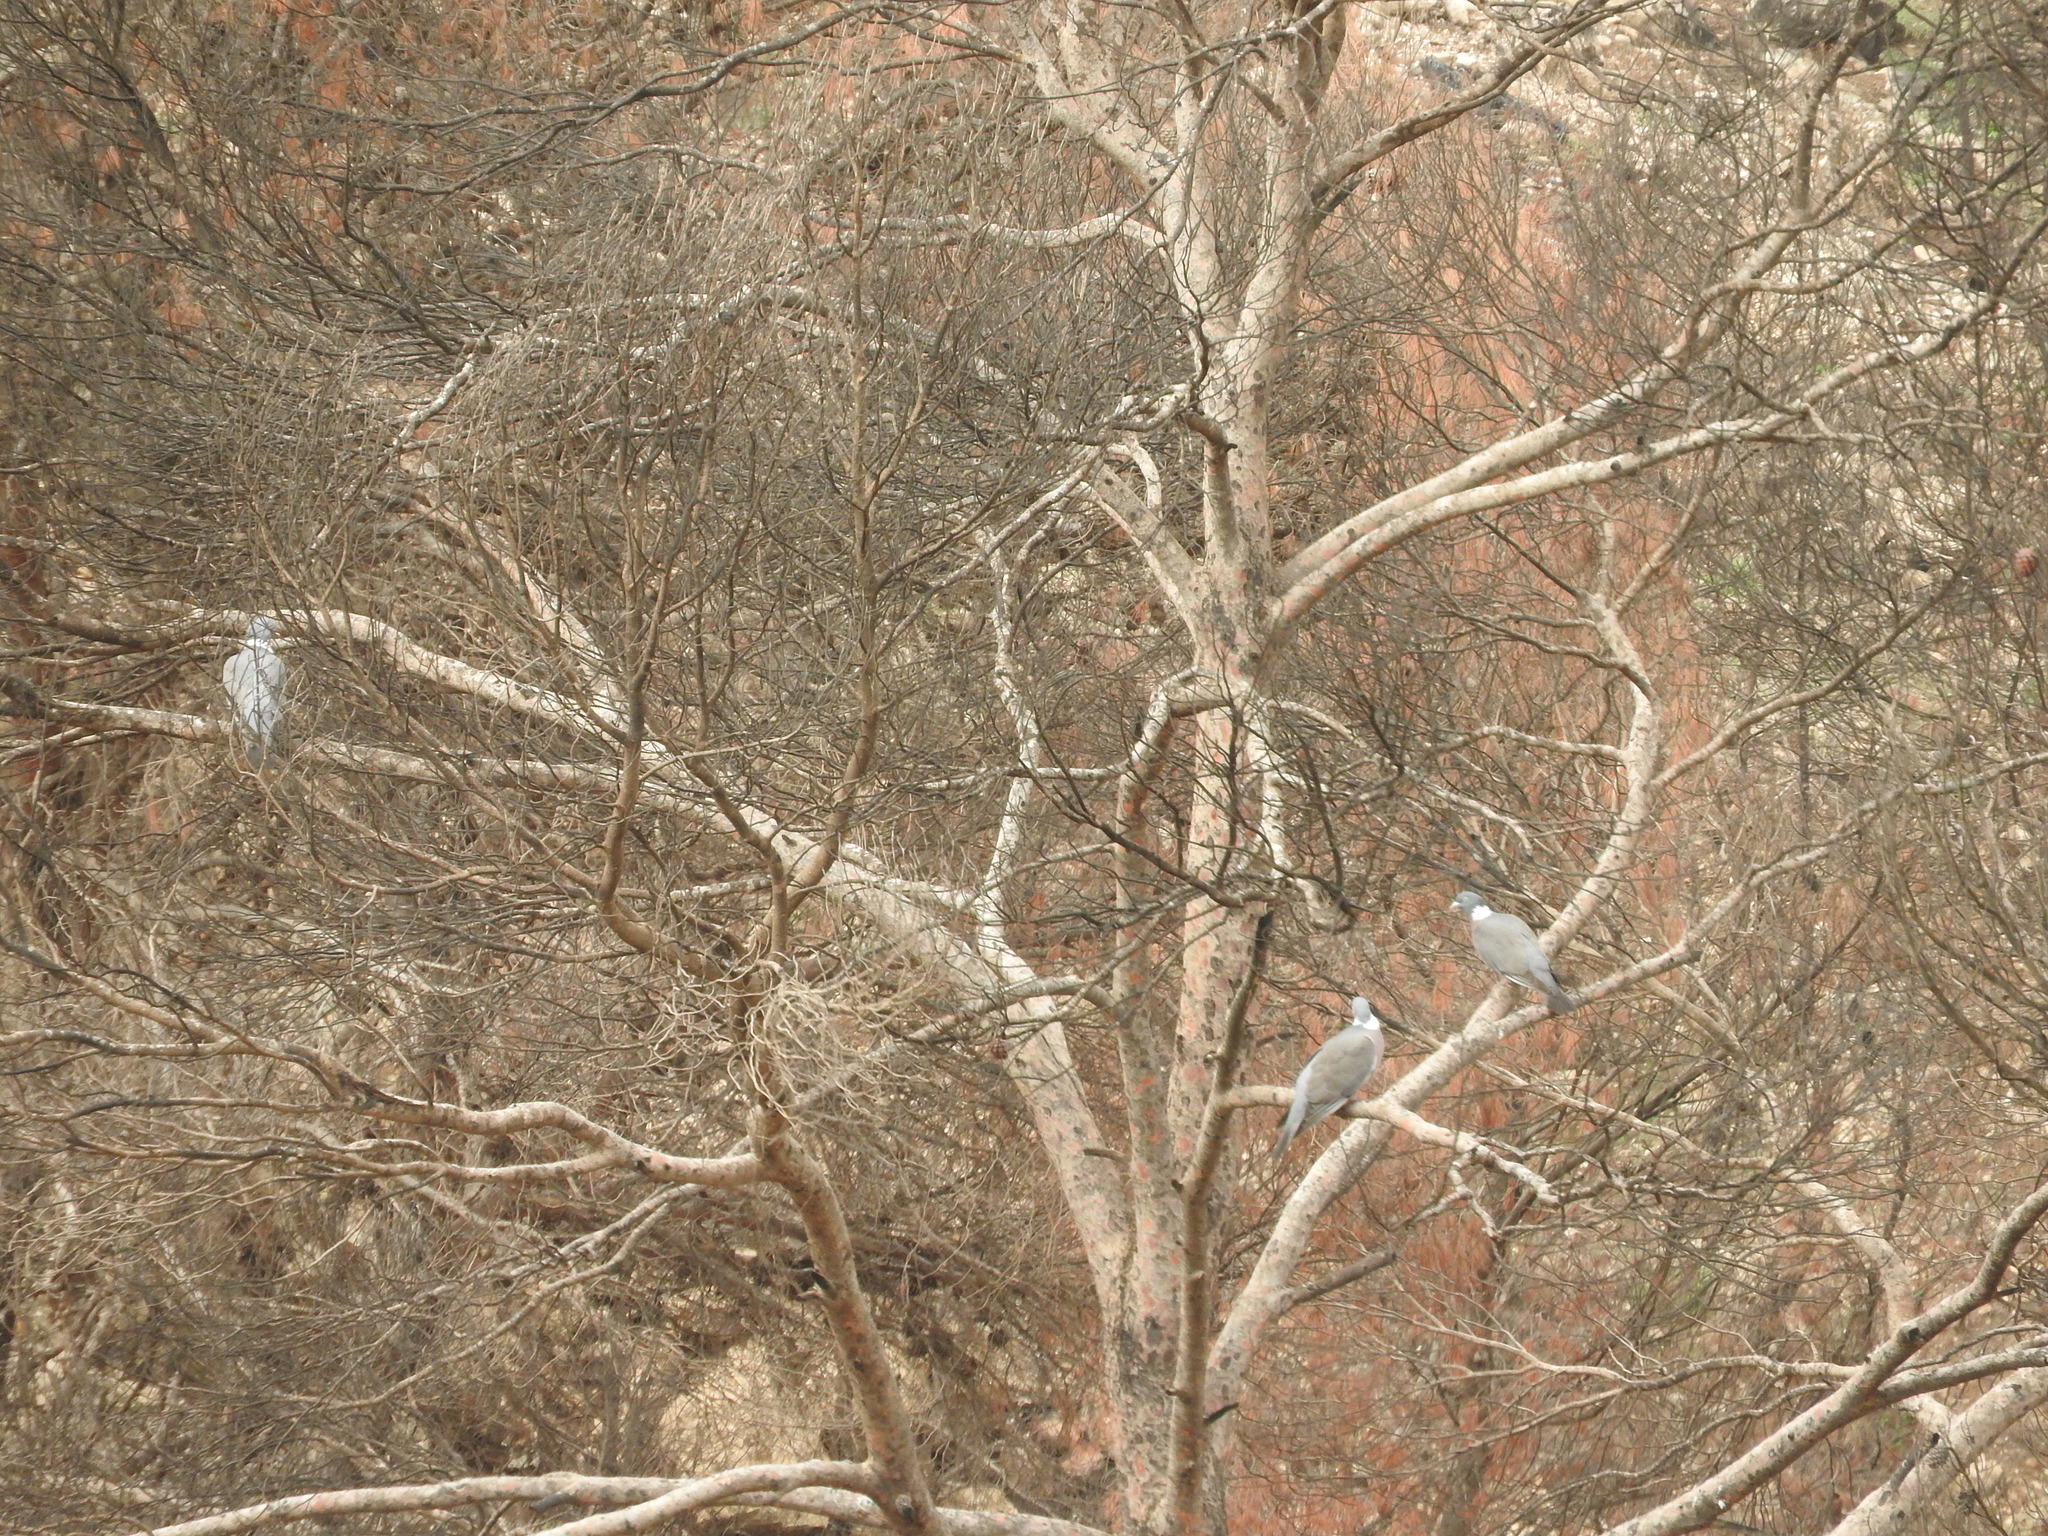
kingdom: Animalia
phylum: Chordata
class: Aves
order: Columbiformes
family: Columbidae
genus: Columba
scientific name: Columba palumbus
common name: Common wood pigeon
